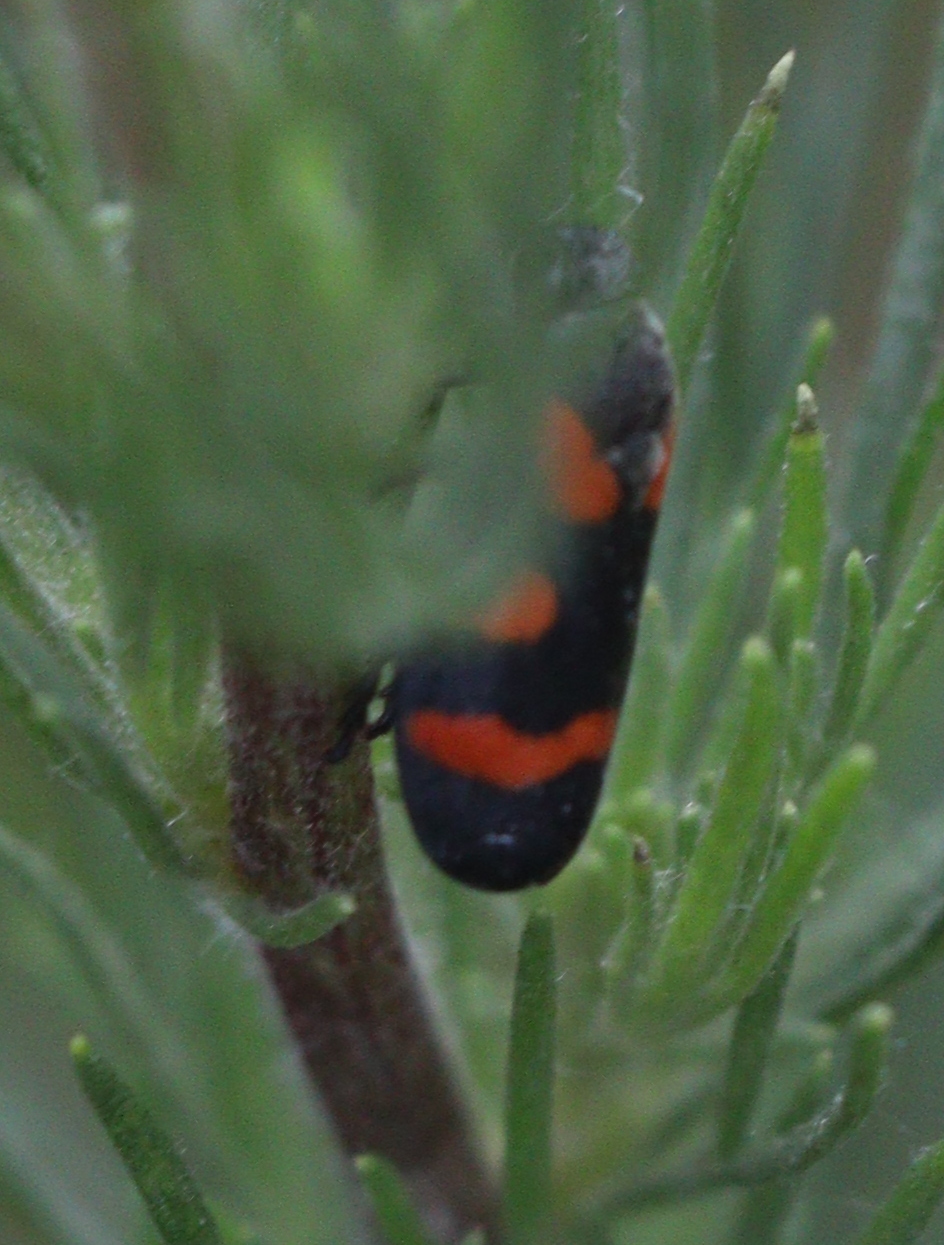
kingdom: Animalia
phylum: Arthropoda
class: Insecta
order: Hemiptera
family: Cercopidae
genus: Cercopis
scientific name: Cercopis sanguinolenta
